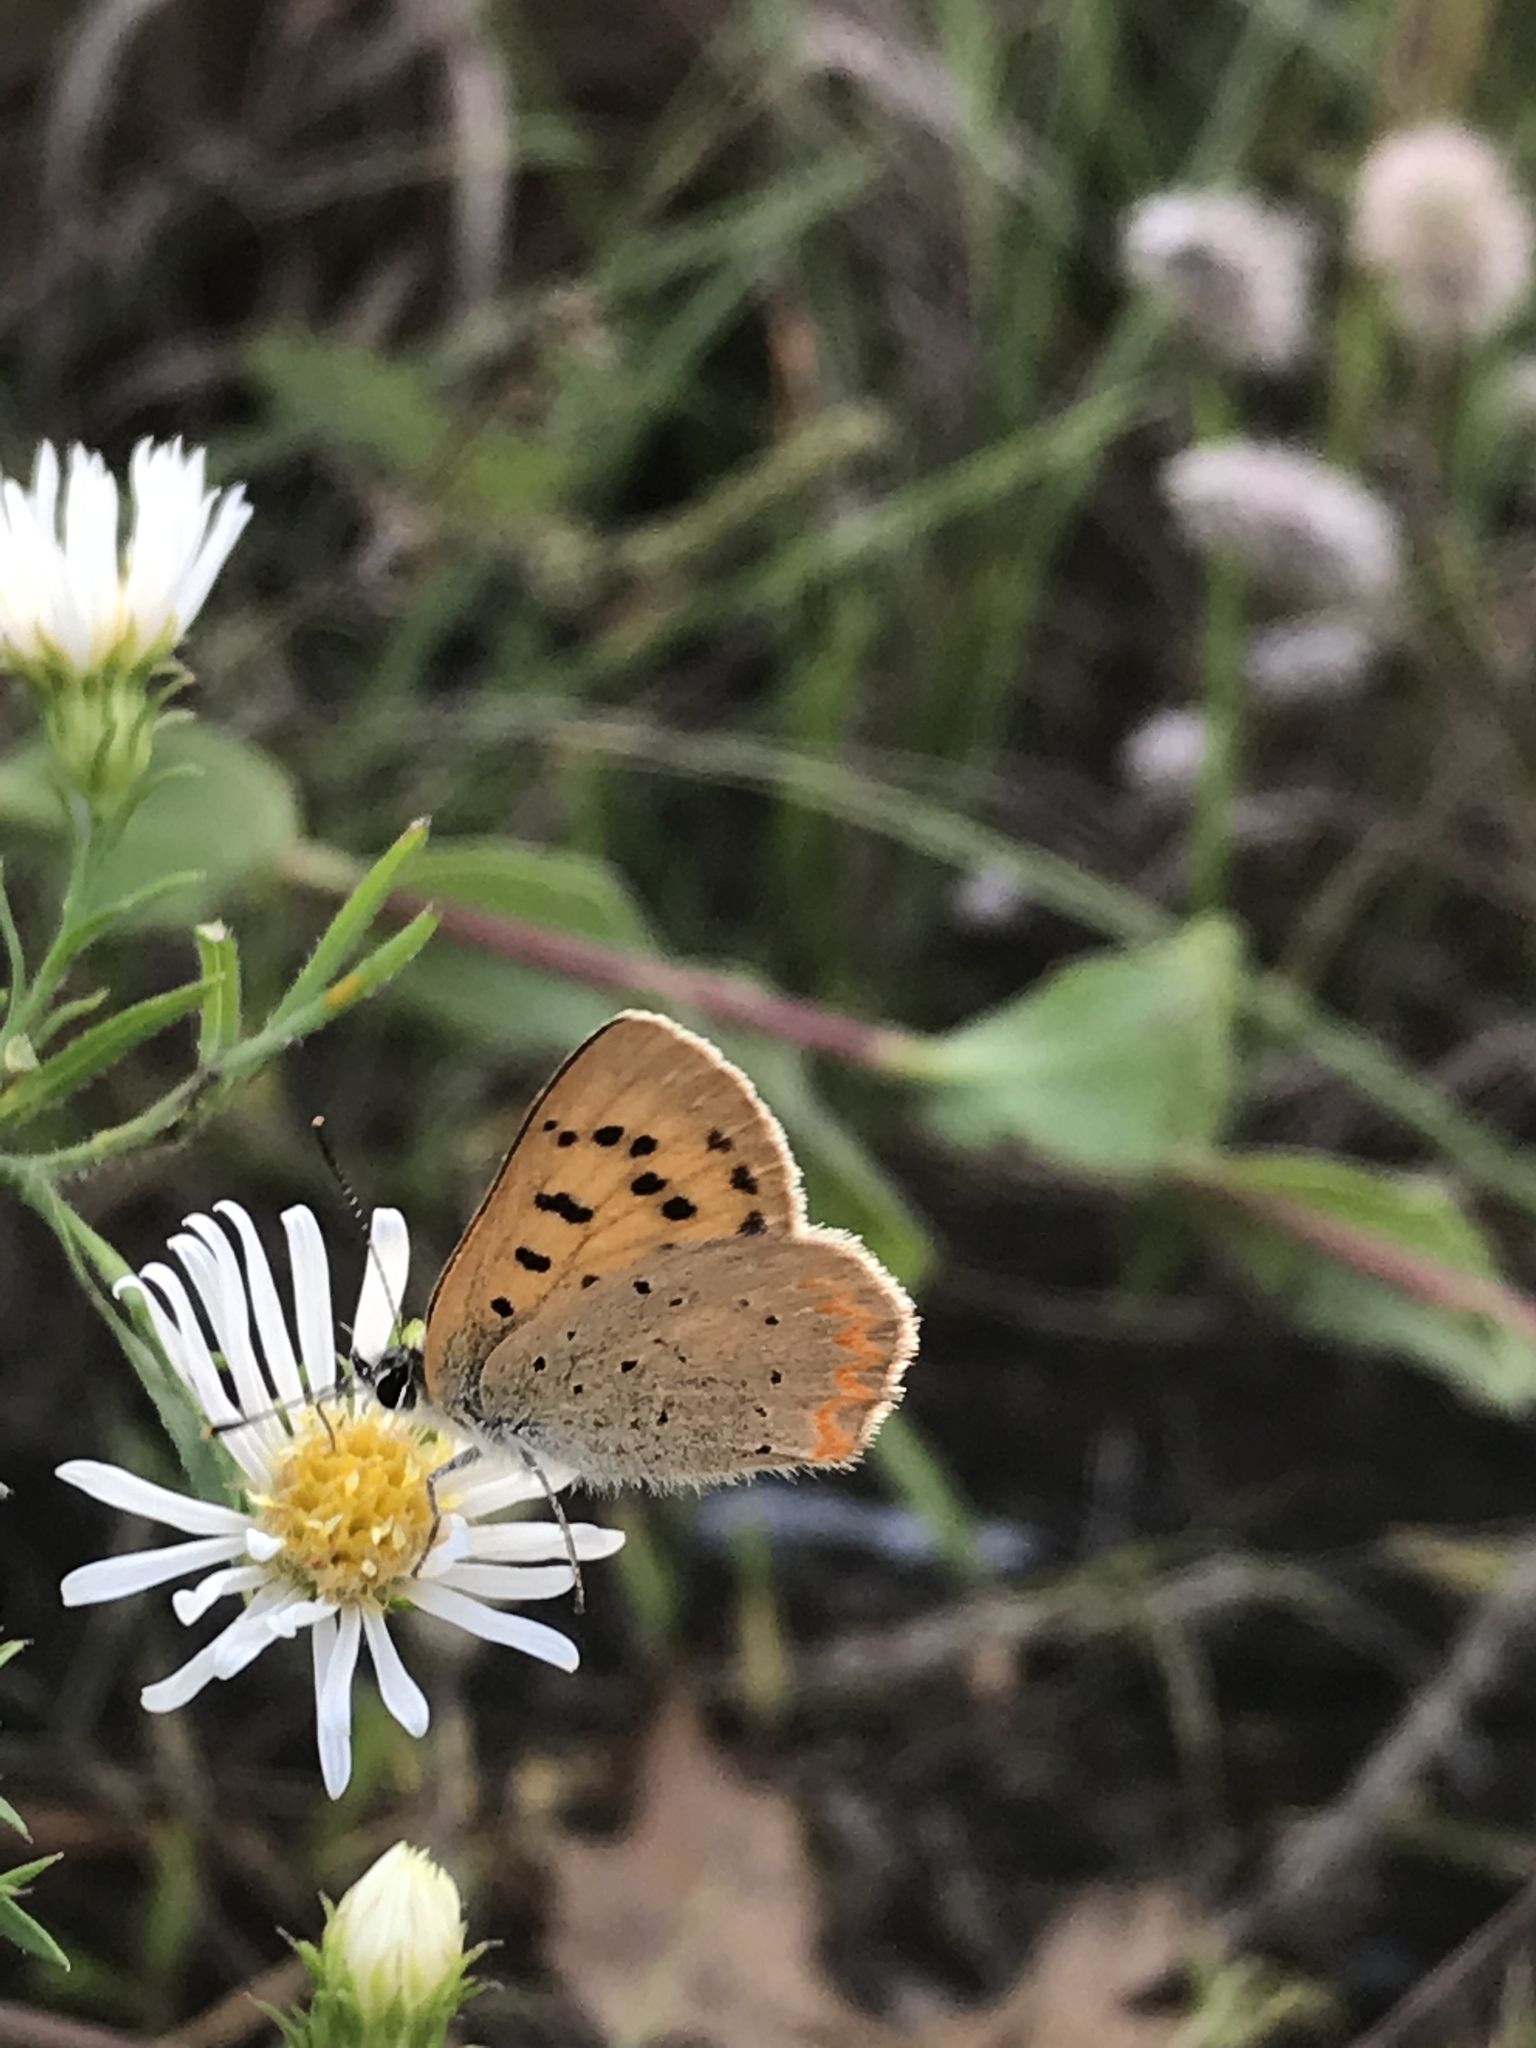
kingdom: Animalia
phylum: Arthropoda
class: Insecta
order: Lepidoptera
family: Lycaenidae
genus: Tharsalea
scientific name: Tharsalea helloides
